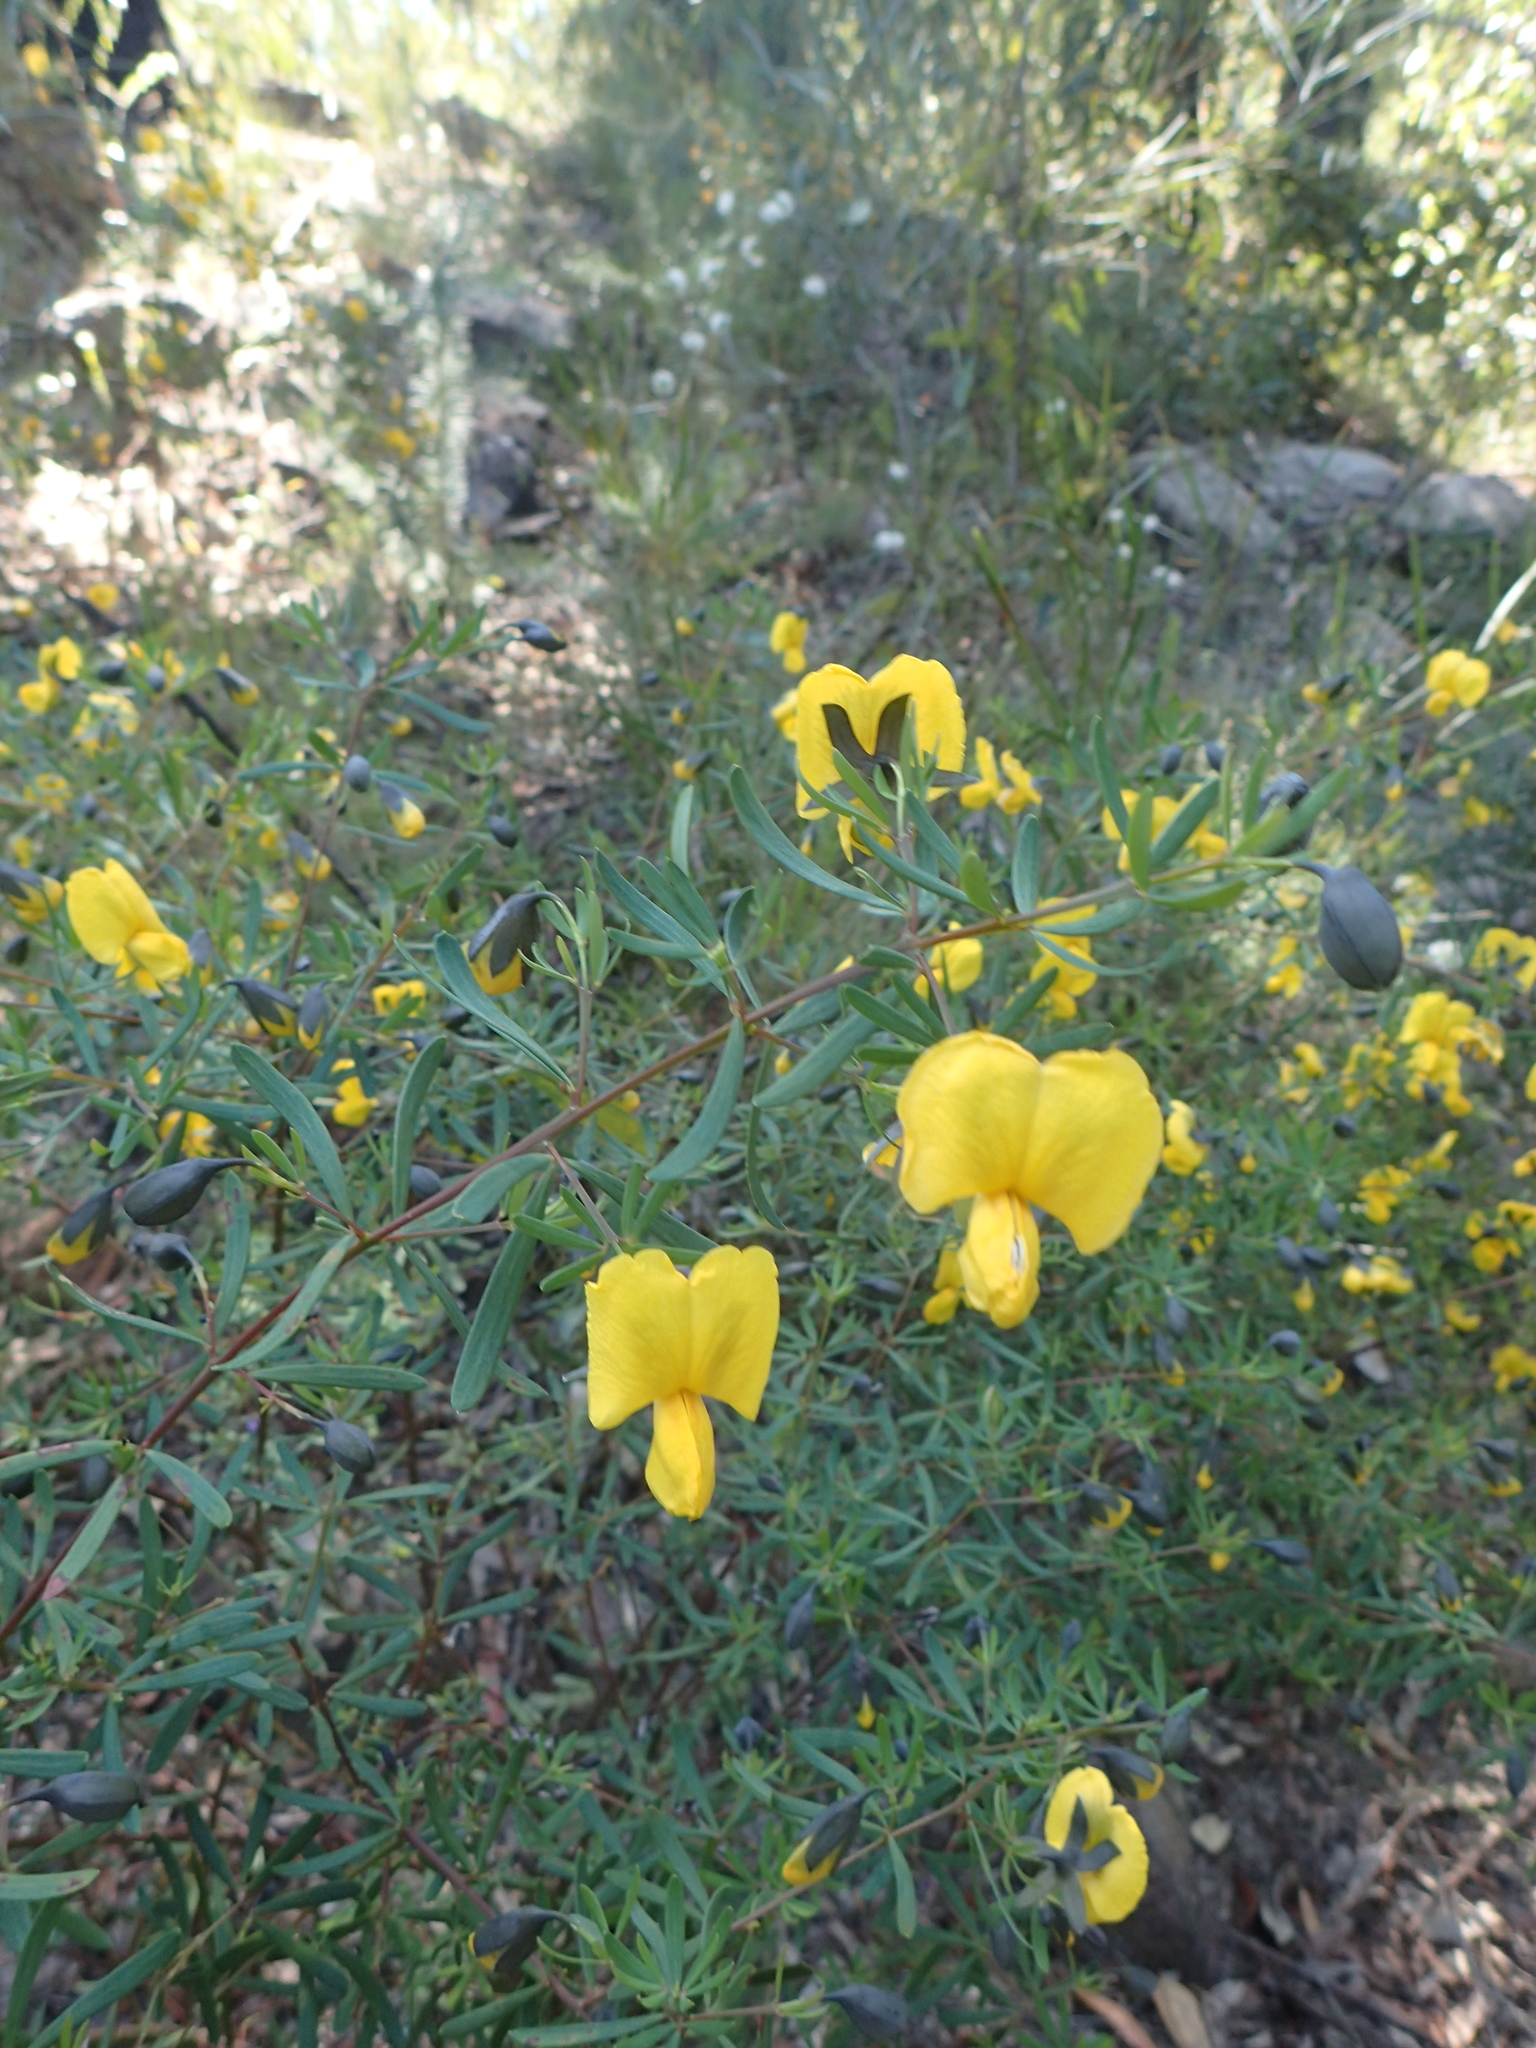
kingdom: Plantae
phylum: Tracheophyta
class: Magnoliopsida
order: Fabales
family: Fabaceae
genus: Gompholobium
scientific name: Gompholobium latifolium
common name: Broadleaf wedge-pea
